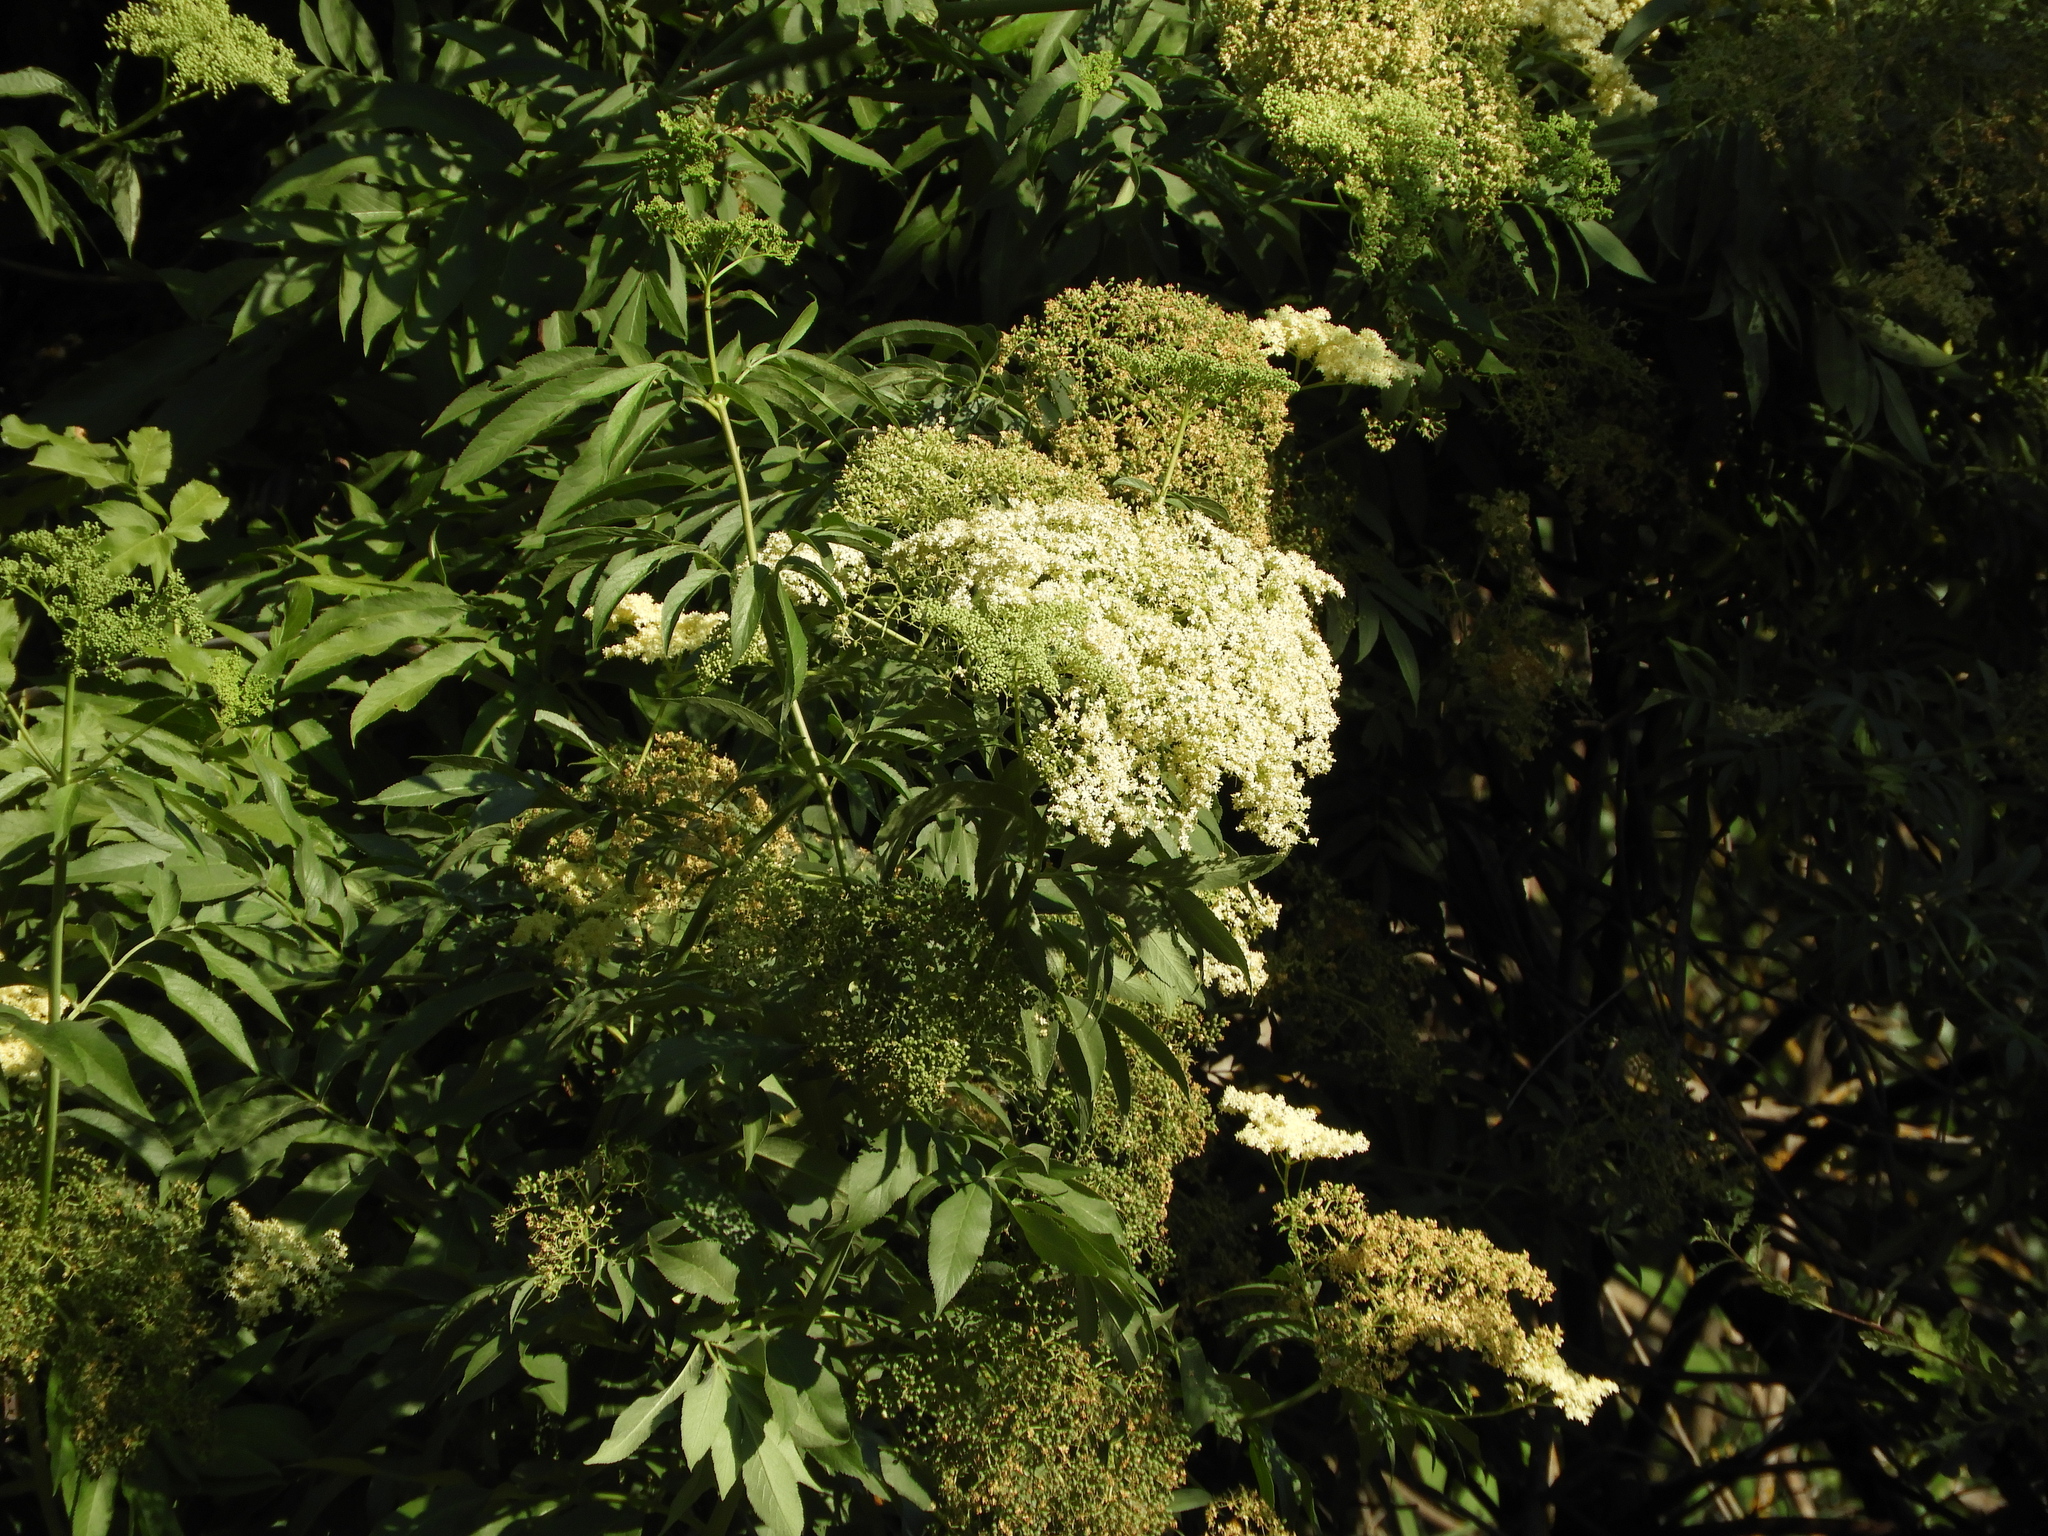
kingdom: Plantae
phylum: Tracheophyta
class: Magnoliopsida
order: Dipsacales
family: Viburnaceae
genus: Sambucus
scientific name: Sambucus cerulea
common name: Blue elder
